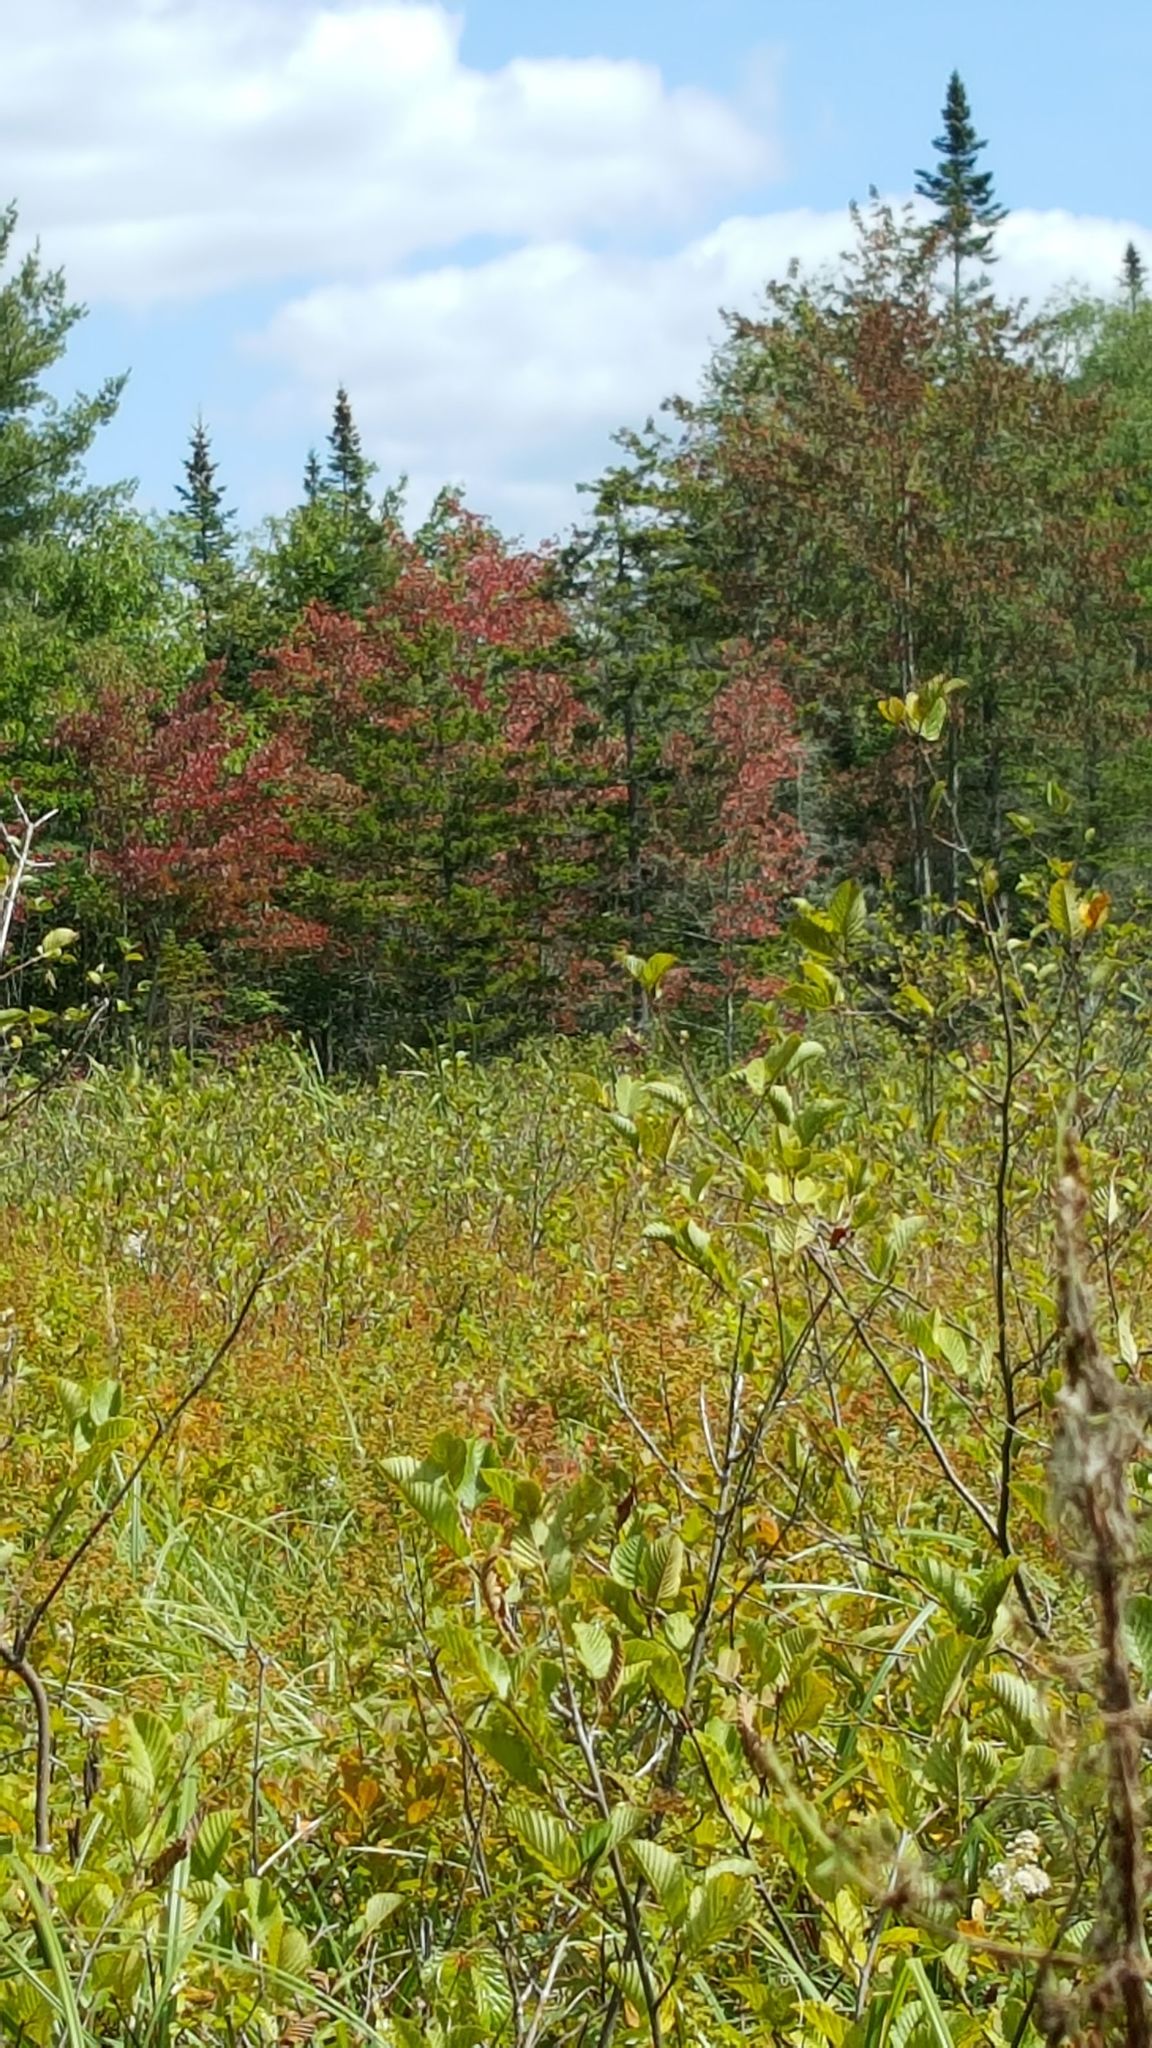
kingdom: Plantae
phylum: Tracheophyta
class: Pinopsida
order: Pinales
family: Pinaceae
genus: Abies
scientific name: Abies balsamea
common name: Balsam fir
